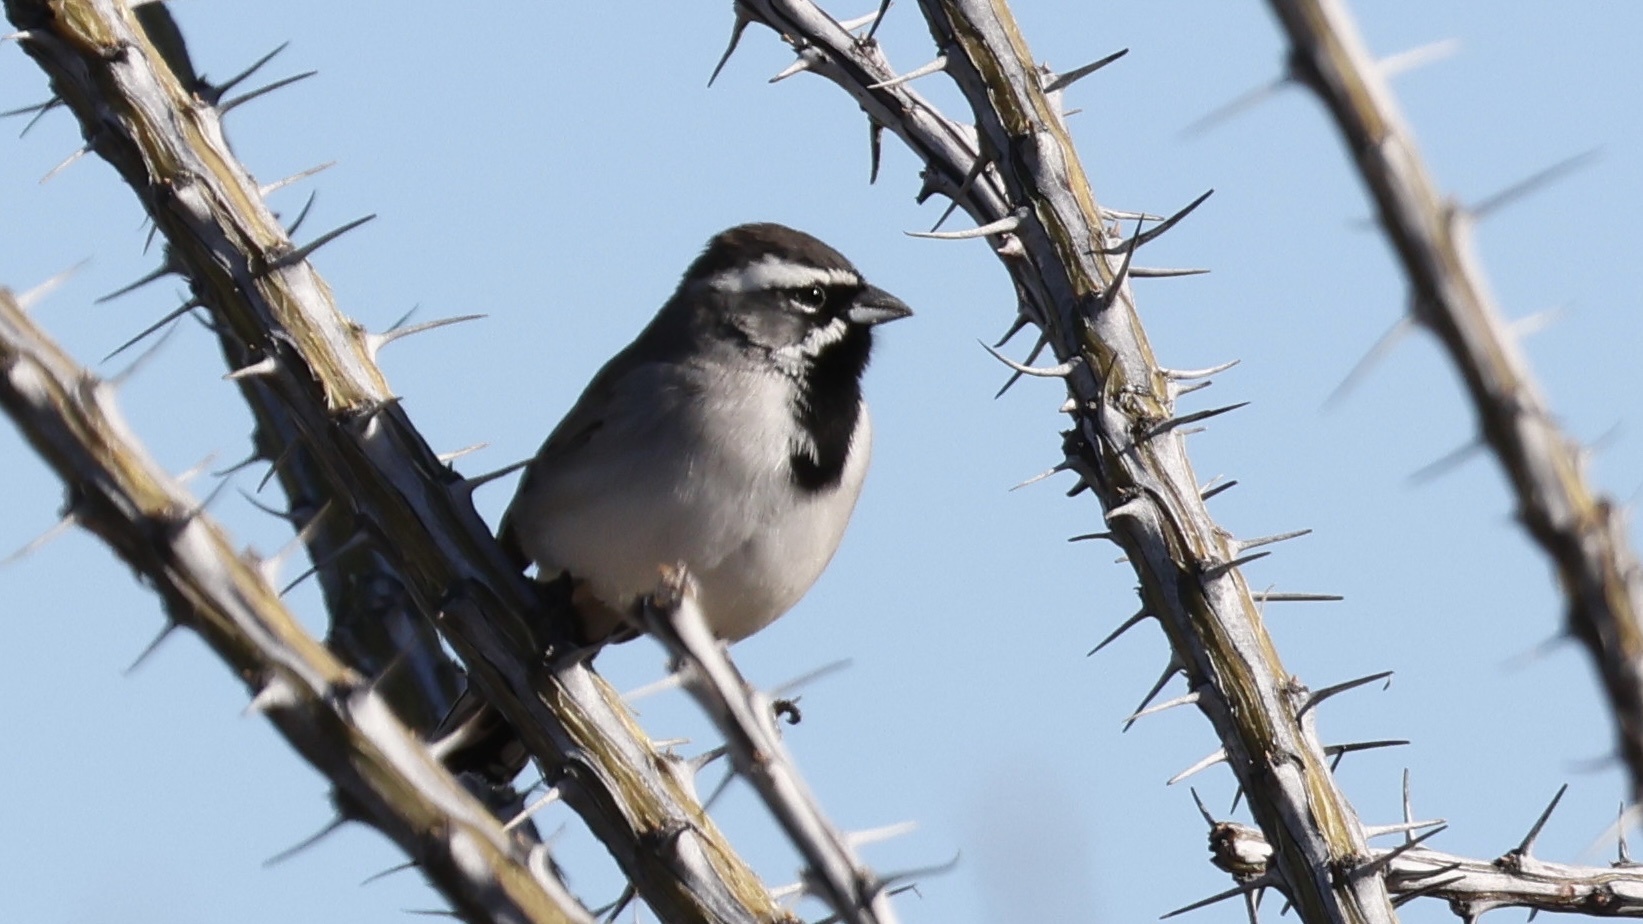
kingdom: Animalia
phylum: Chordata
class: Aves
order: Passeriformes
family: Passerellidae
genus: Amphispiza
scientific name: Amphispiza bilineata
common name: Black-throated sparrow
